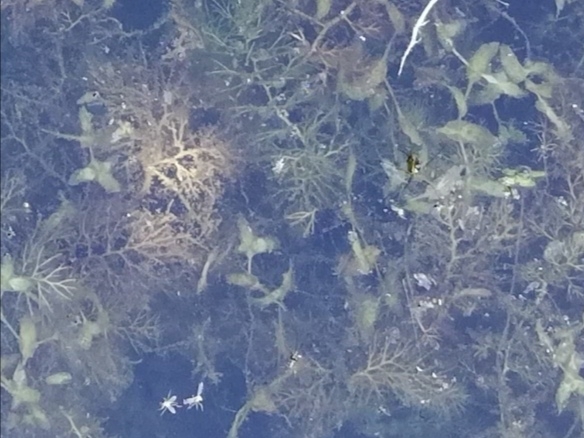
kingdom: Plantae
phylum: Tracheophyta
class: Liliopsida
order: Alismatales
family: Araceae
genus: Lemna
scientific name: Lemna trisulca
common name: Ivy-leaved duckweed
